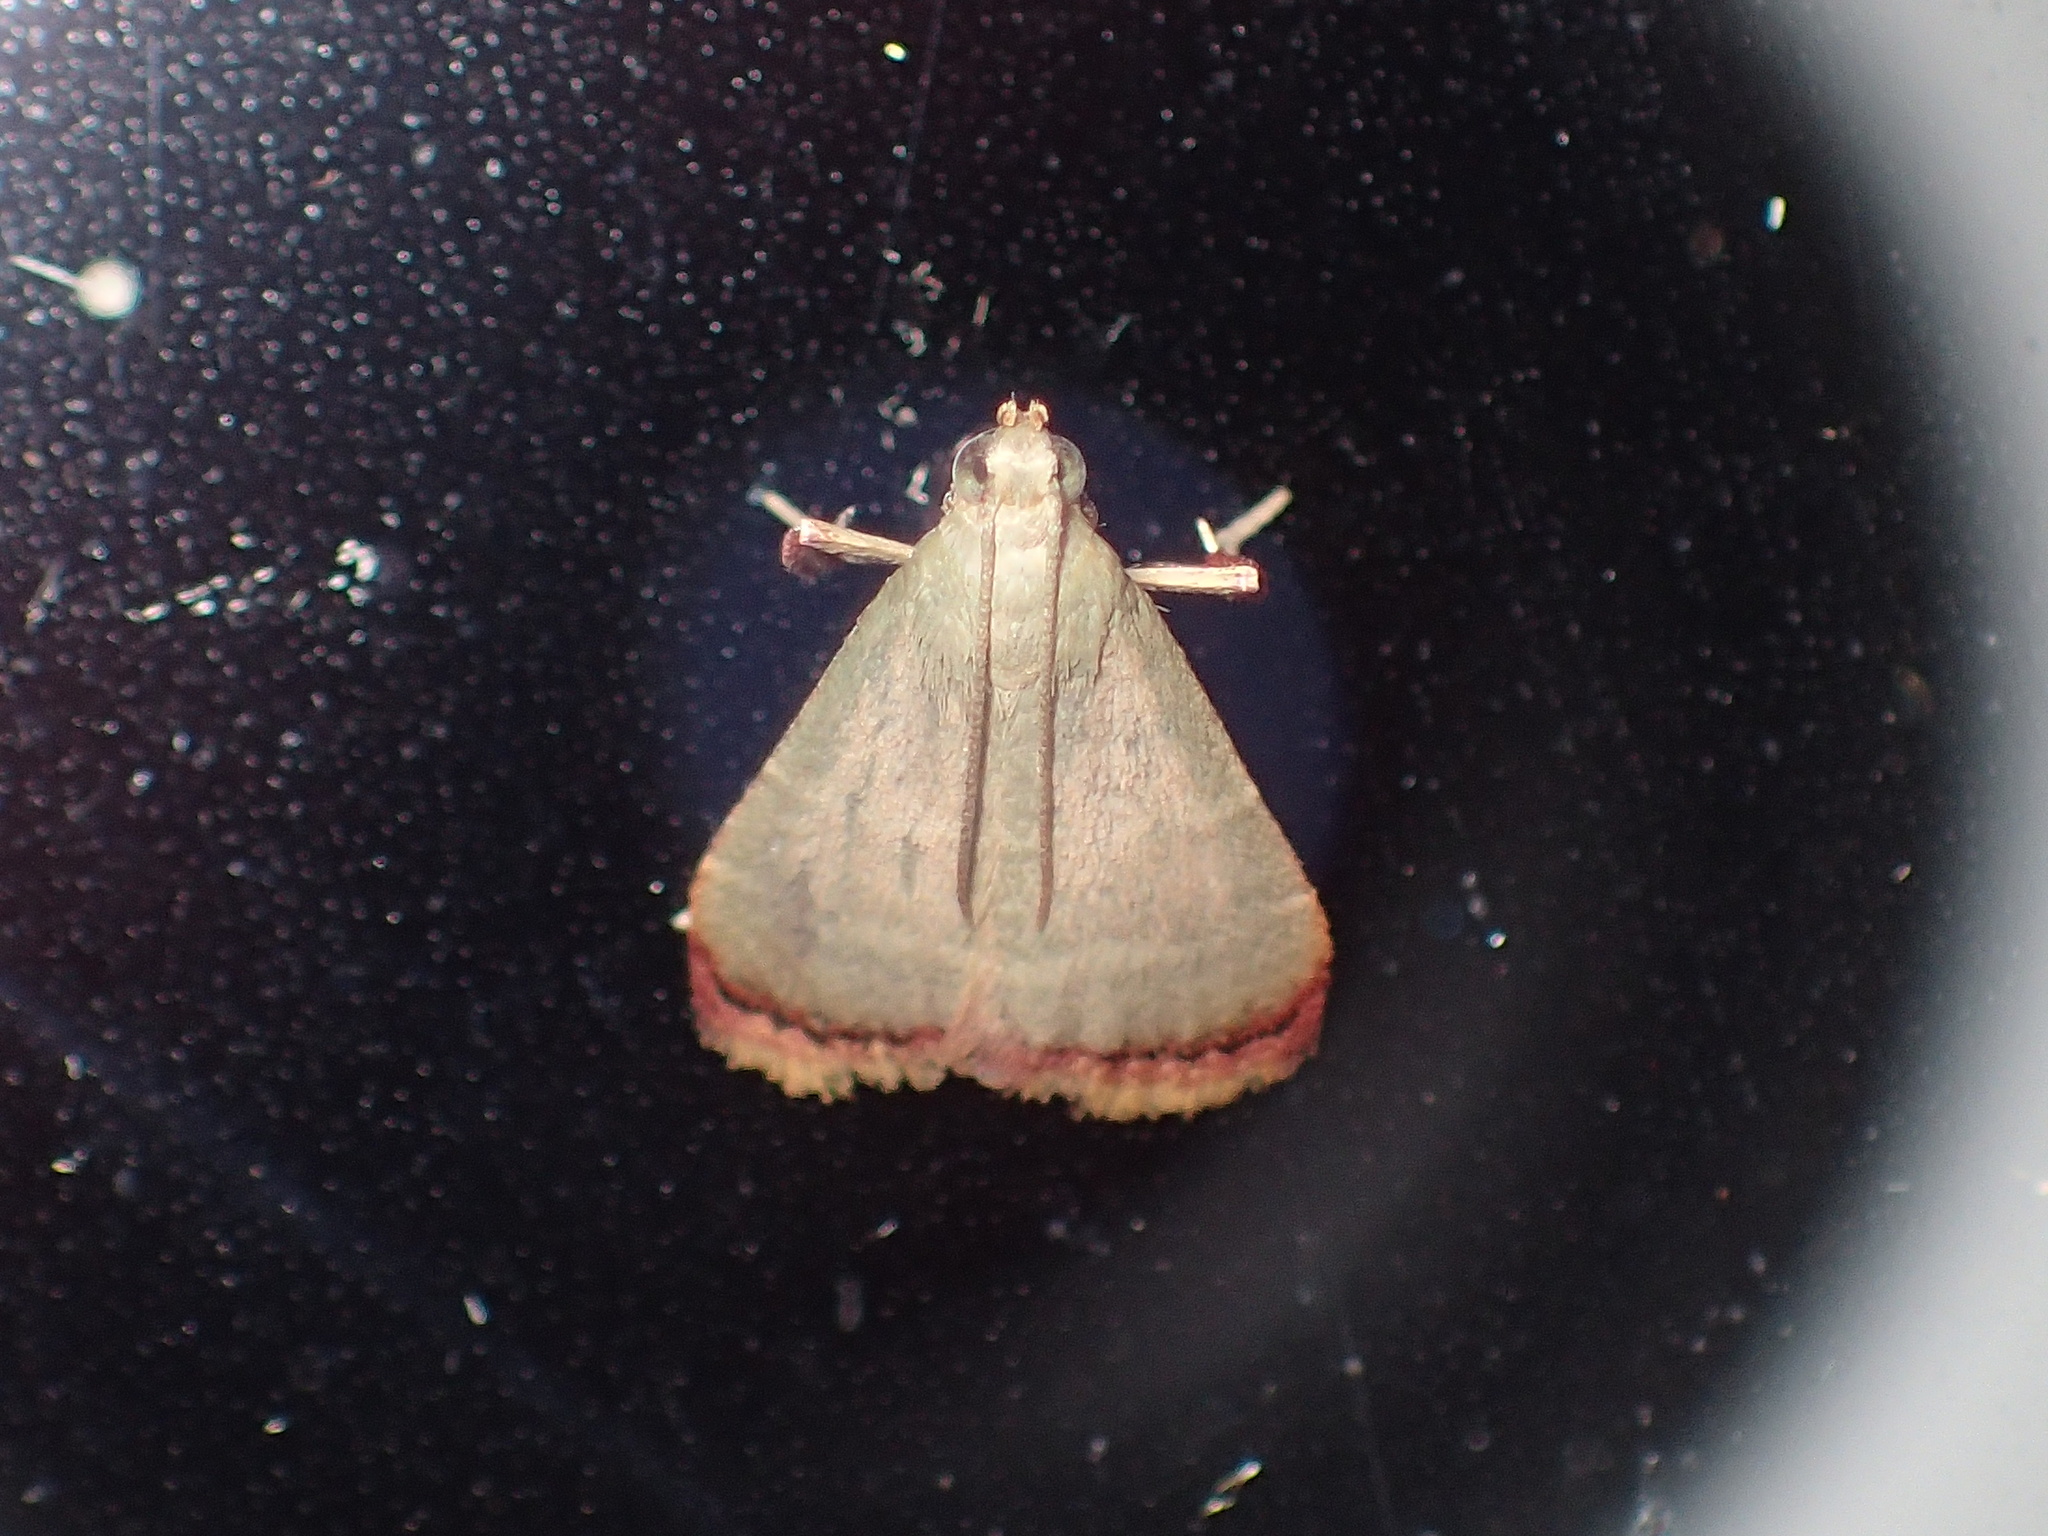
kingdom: Animalia
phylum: Arthropoda
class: Insecta
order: Lepidoptera
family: Pyralidae
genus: Arta
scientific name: Arta olivalis
